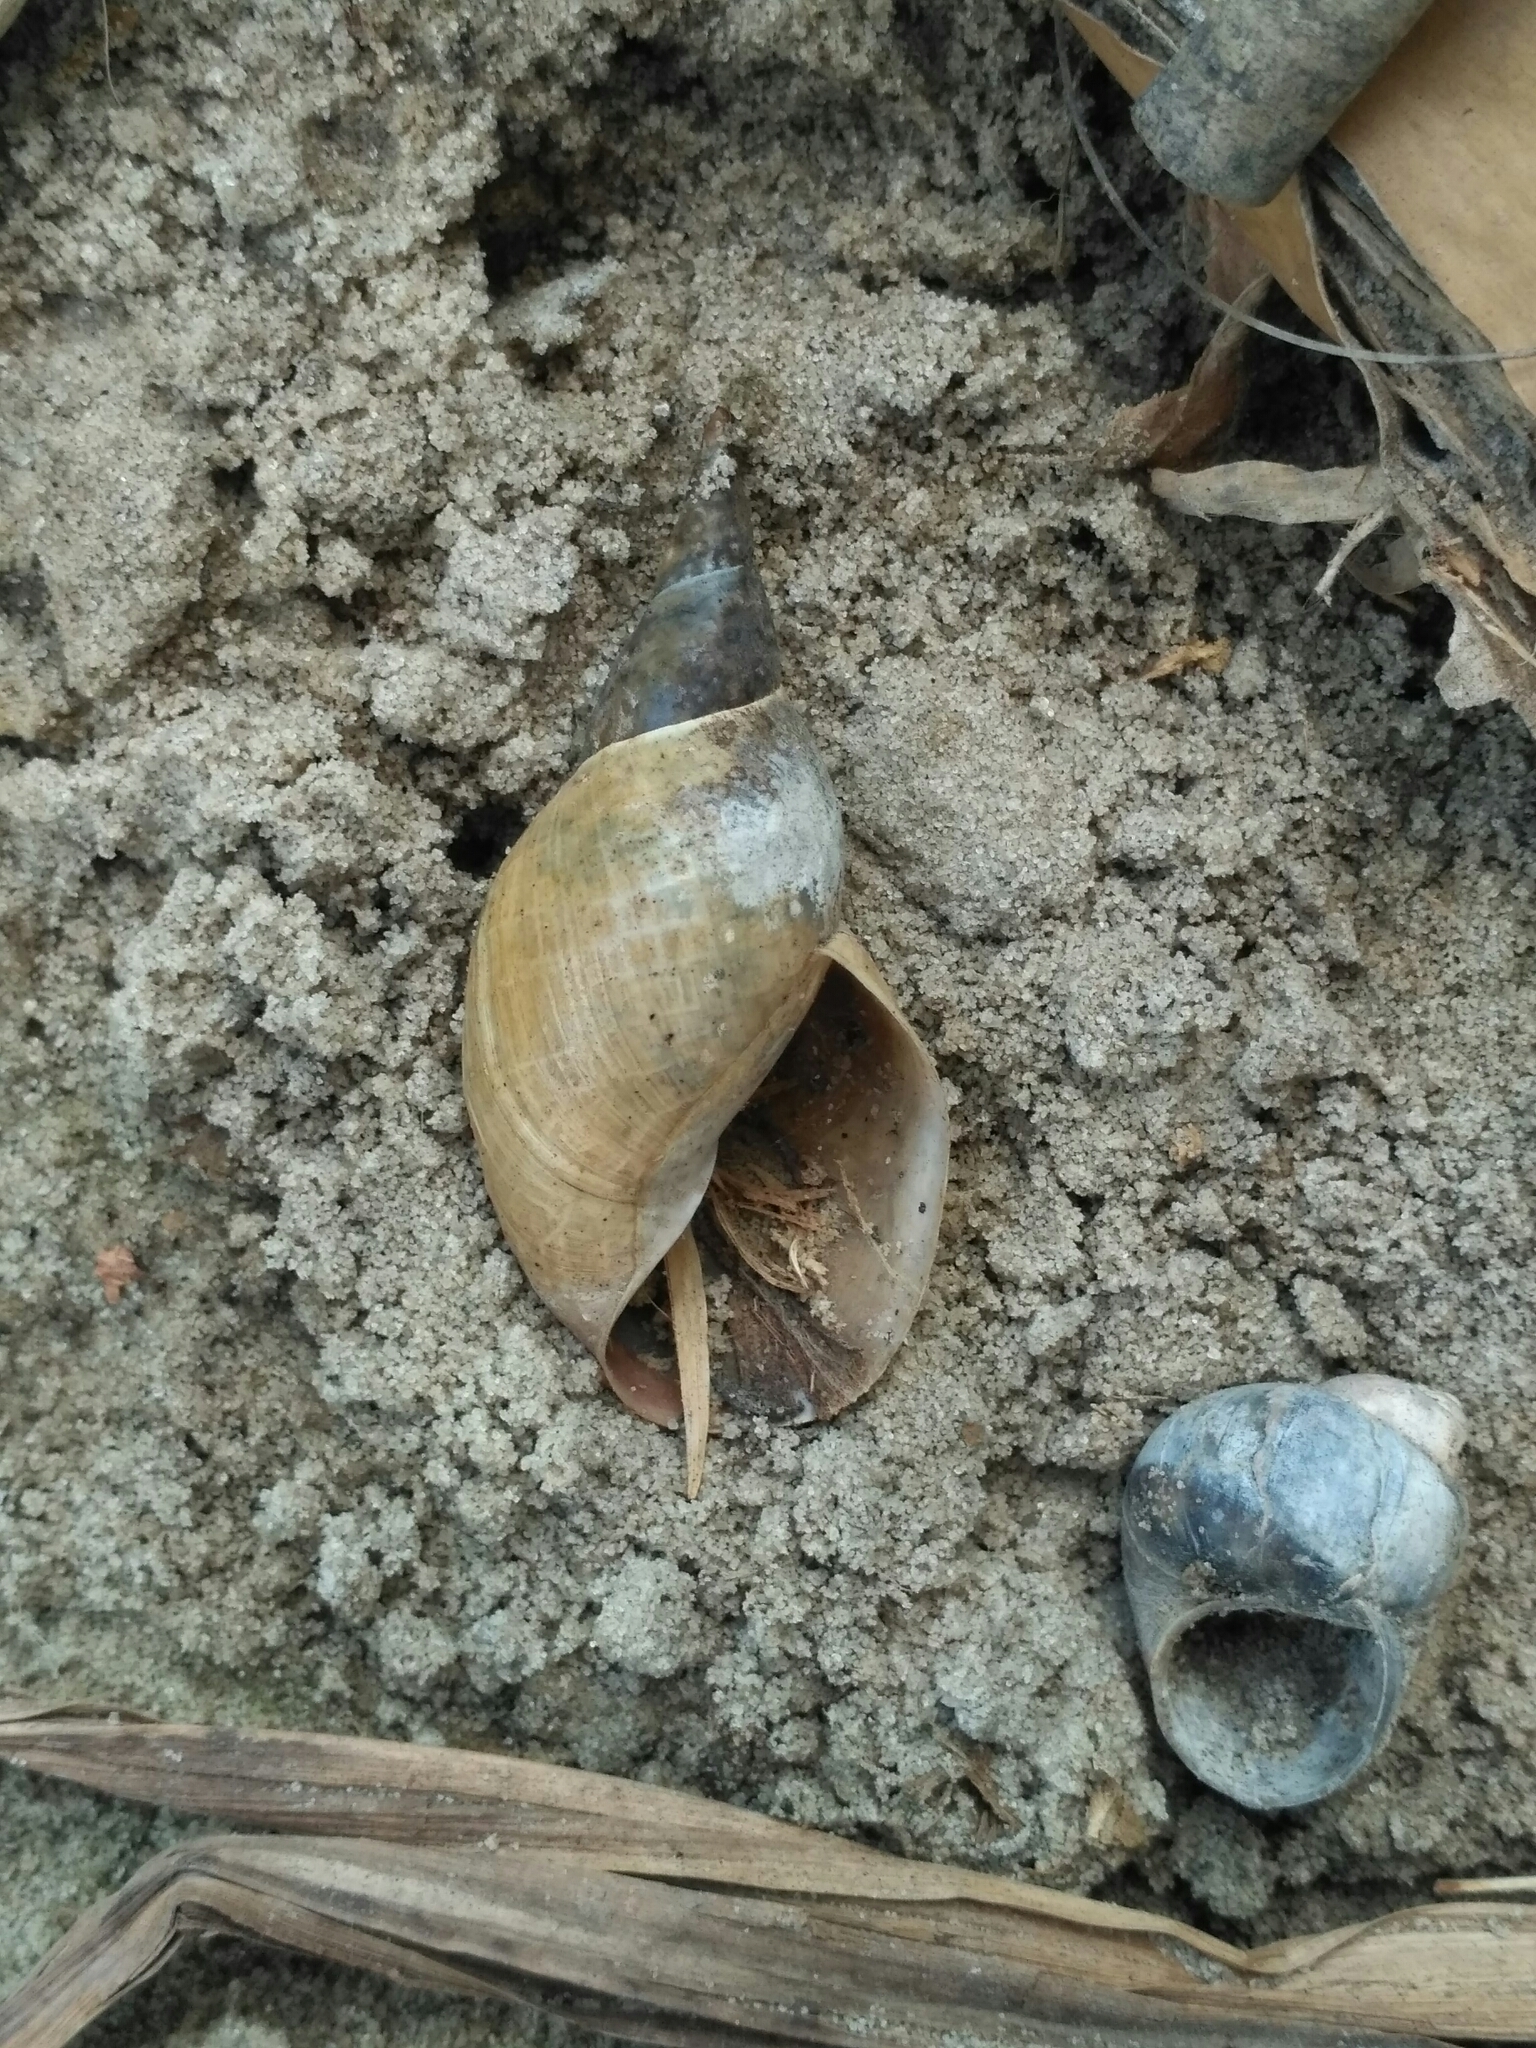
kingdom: Animalia
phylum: Mollusca
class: Gastropoda
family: Lymnaeidae
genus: Lymnaea
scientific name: Lymnaea stagnalis
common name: Great pond snail
